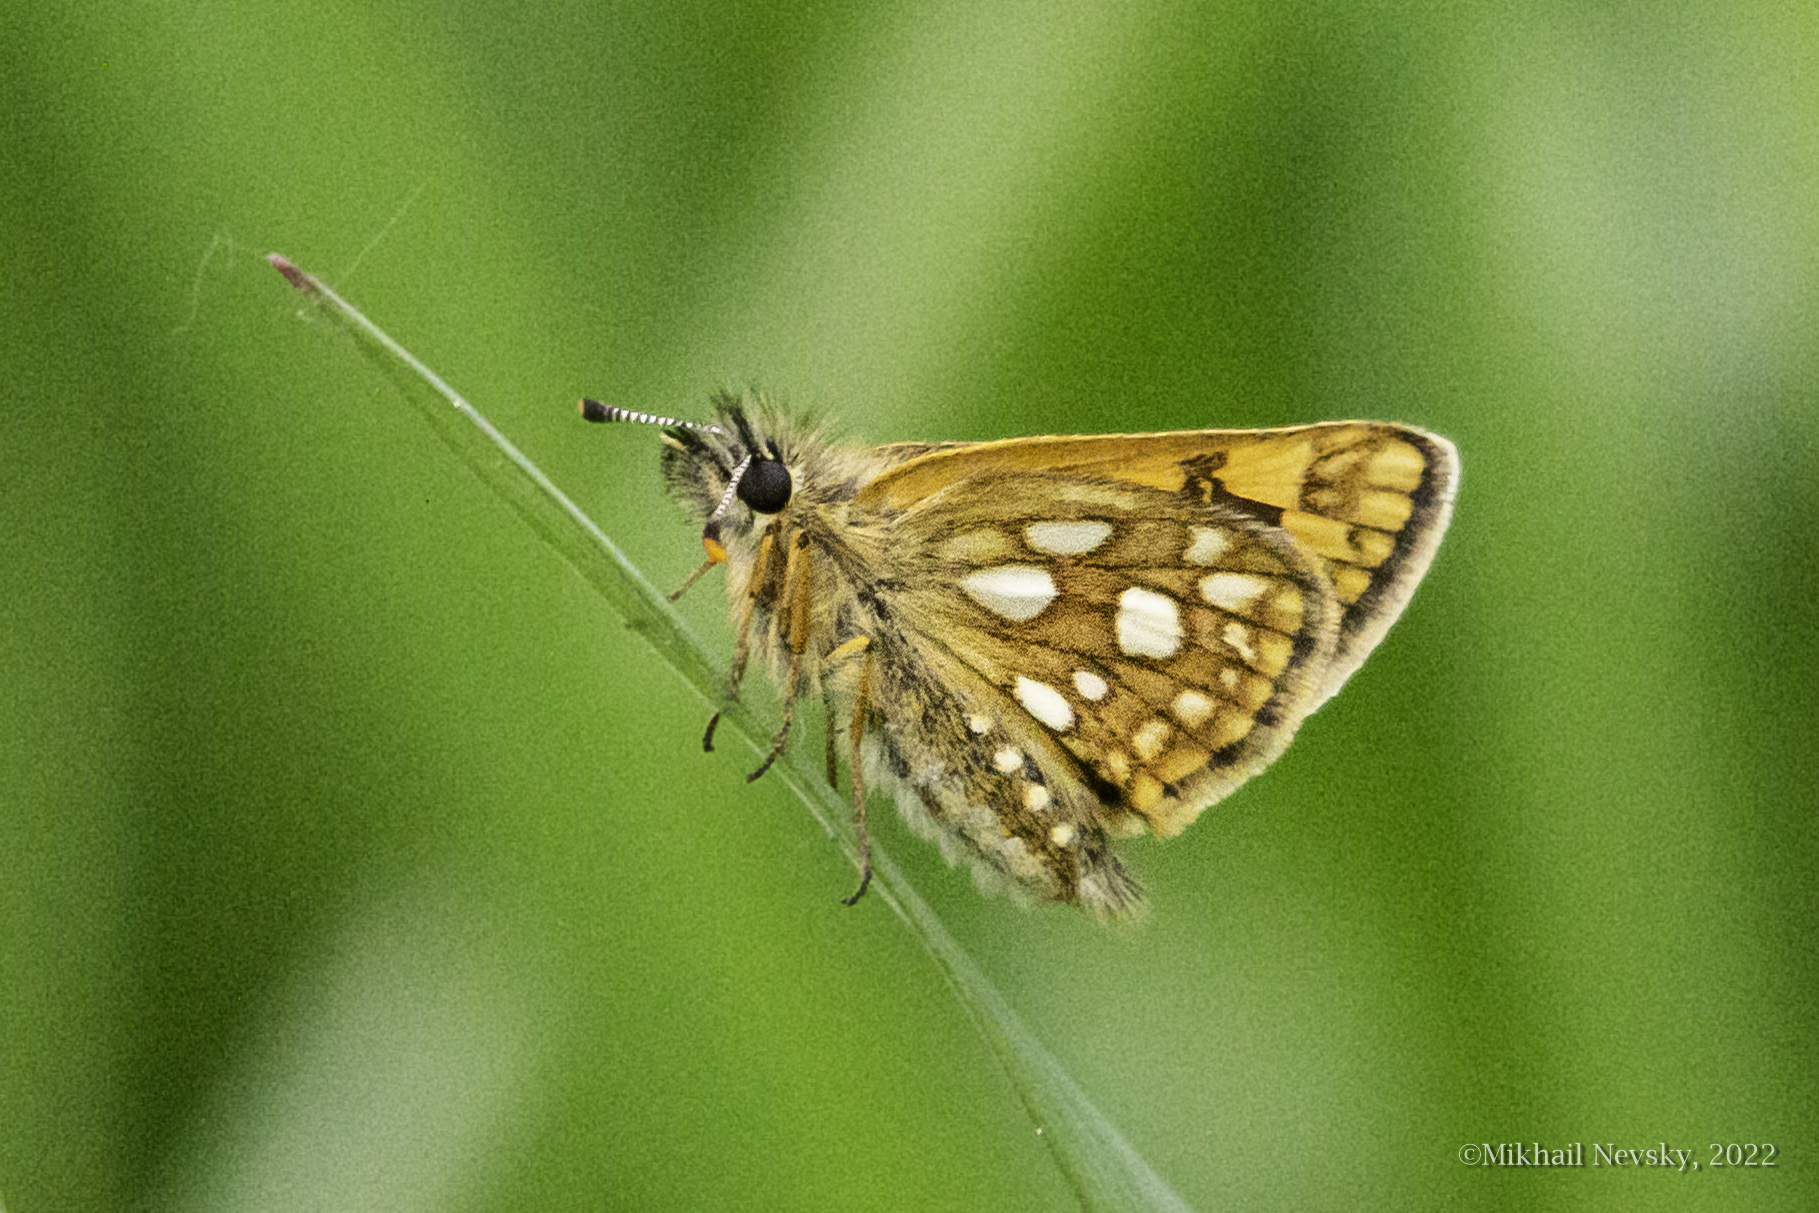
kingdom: Animalia
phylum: Arthropoda
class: Insecta
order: Lepidoptera
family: Hesperiidae
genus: Carterocephalus
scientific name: Carterocephalus palaemon
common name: Chequered skipper
